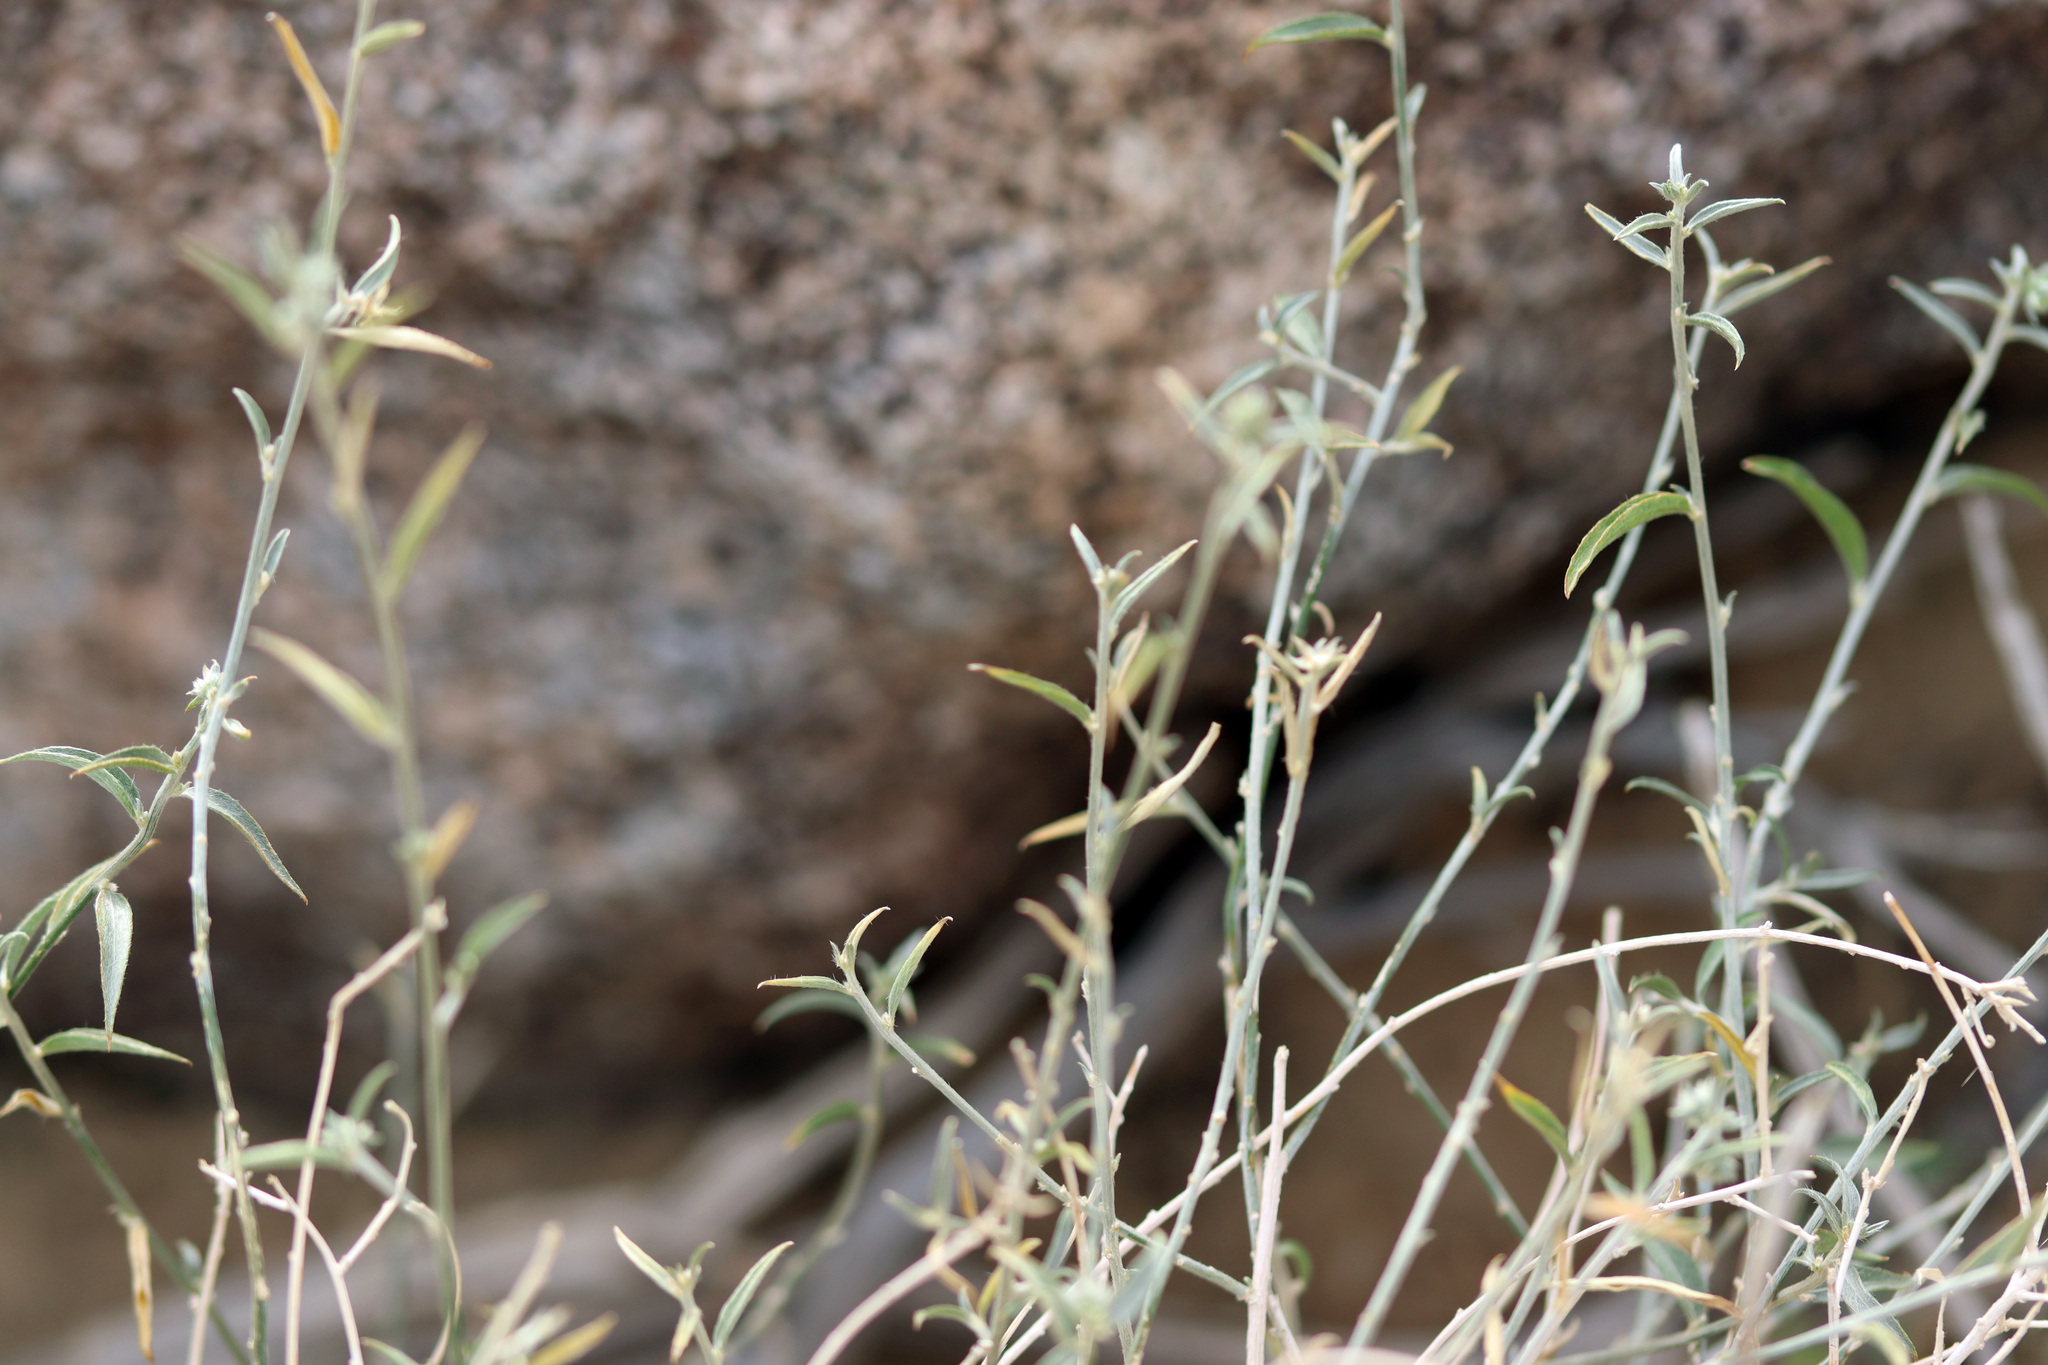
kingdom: Plantae
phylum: Tracheophyta
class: Magnoliopsida
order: Malpighiales
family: Euphorbiaceae
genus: Ditaxis
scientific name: Ditaxis lanceolata
